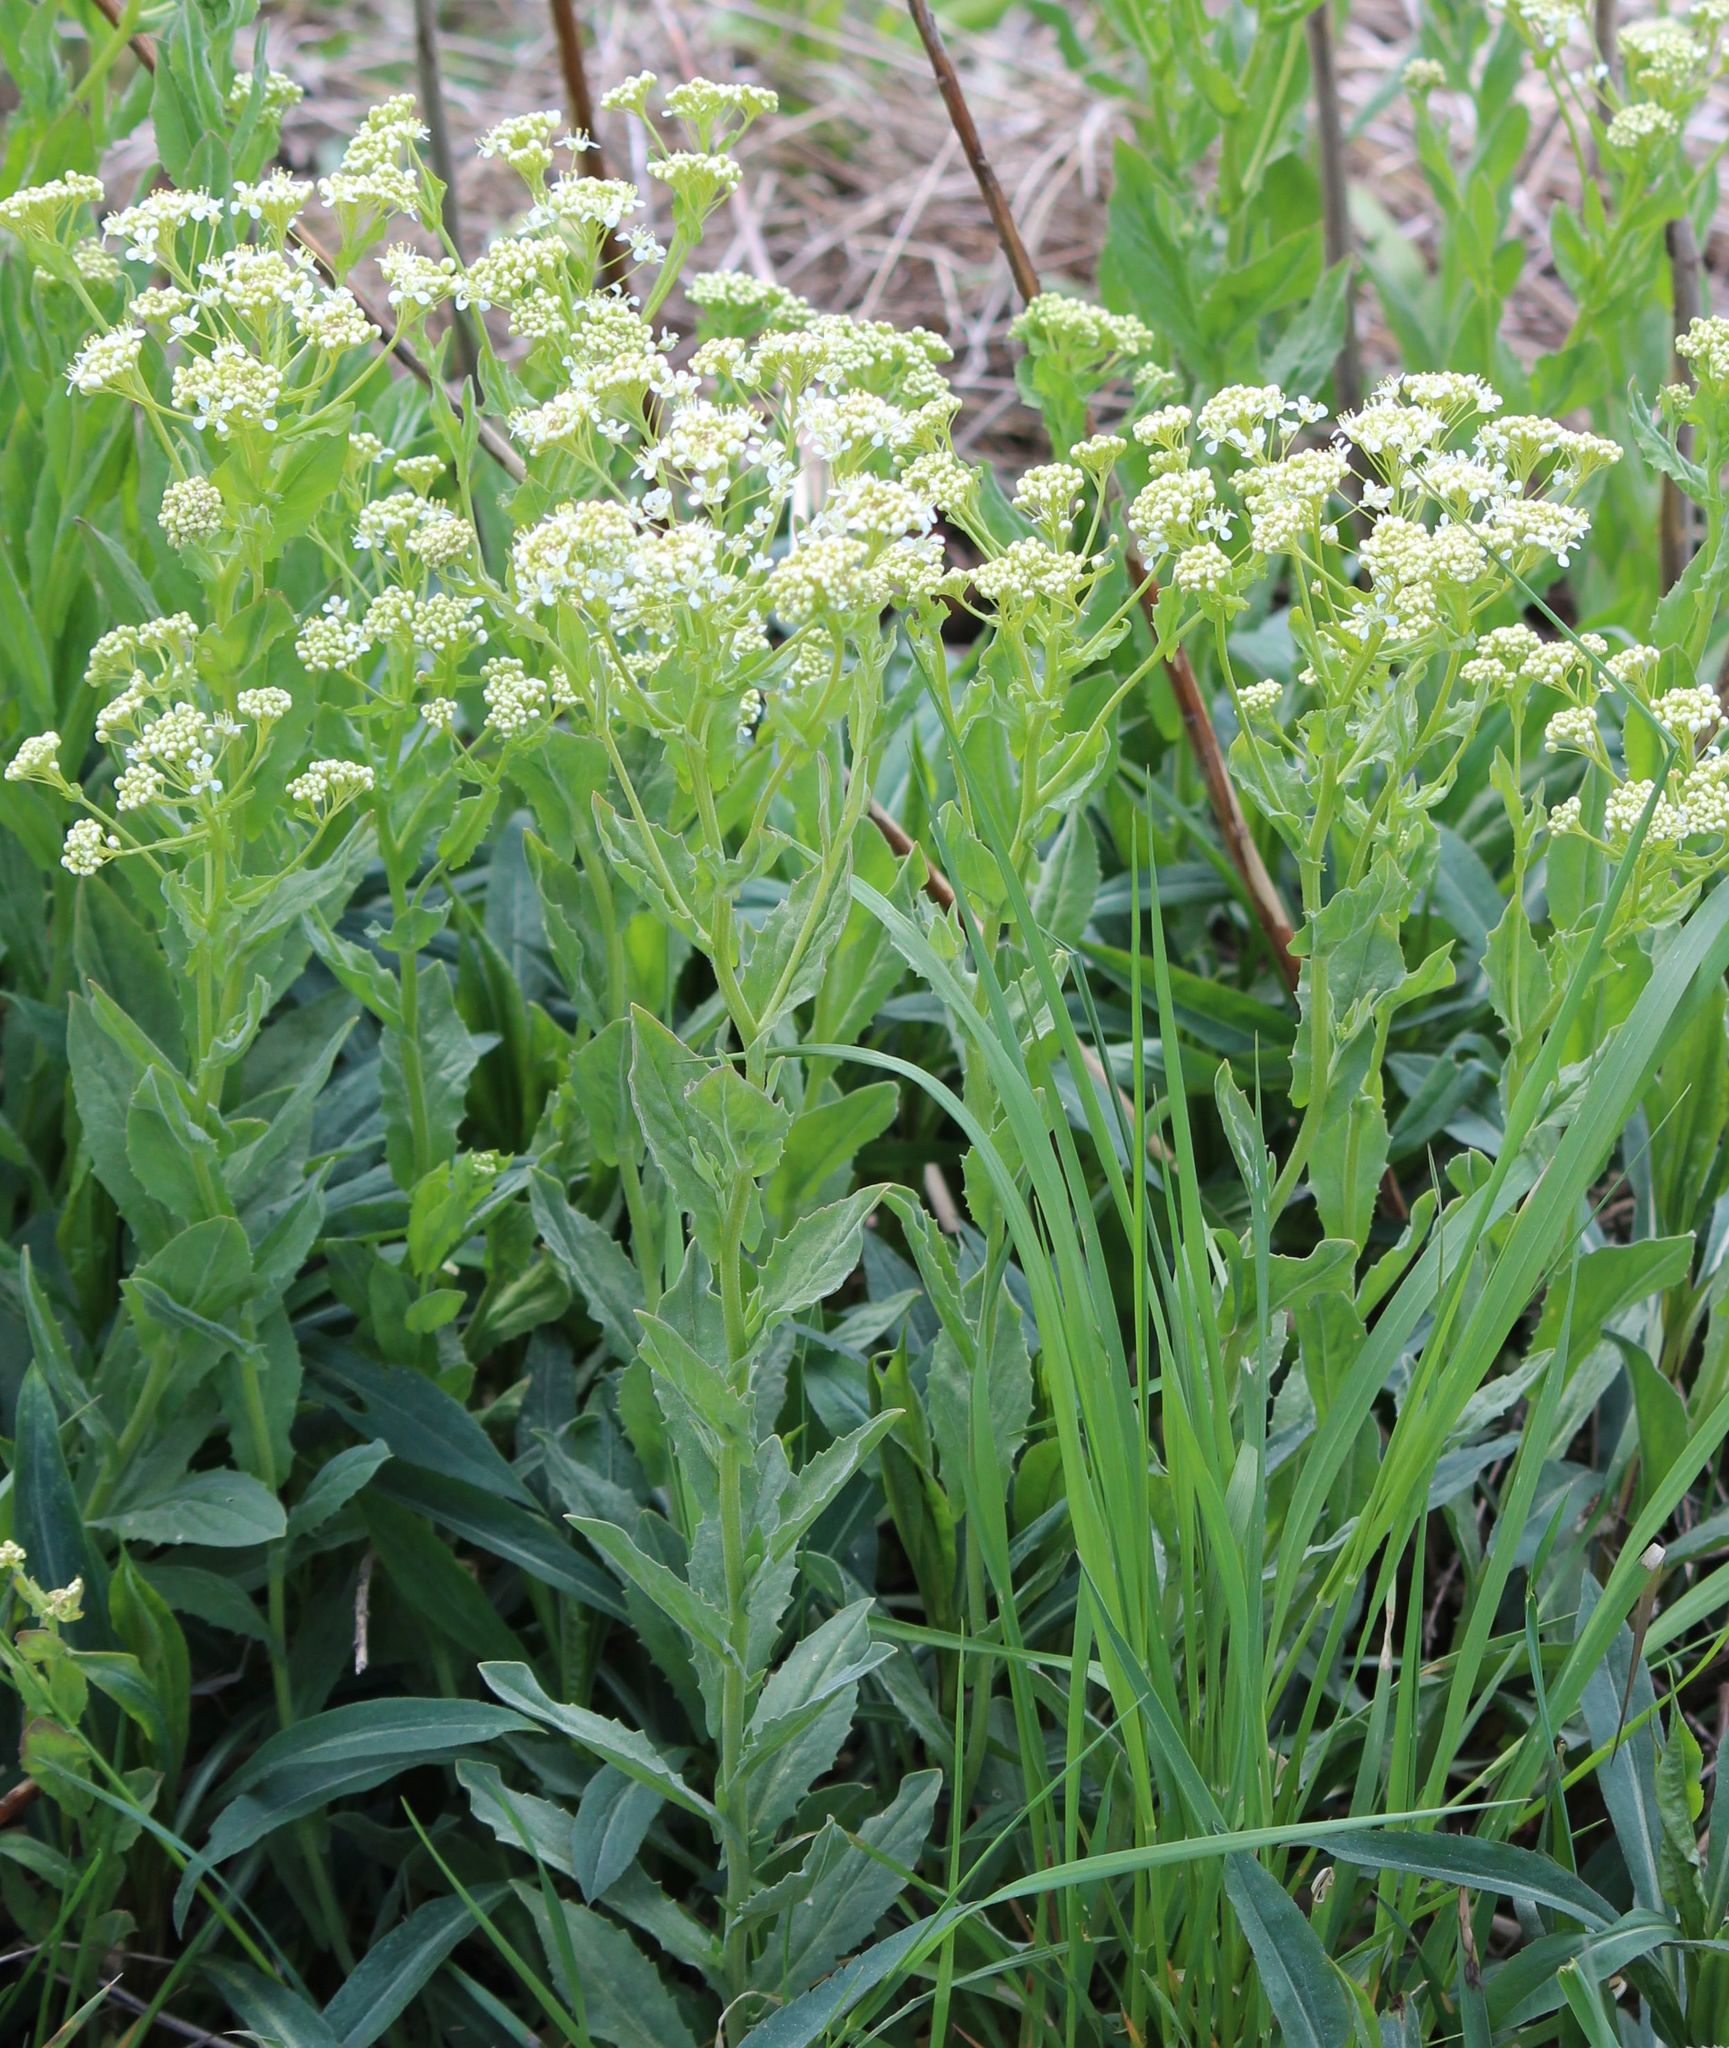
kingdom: Plantae
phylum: Tracheophyta
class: Magnoliopsida
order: Brassicales
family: Brassicaceae
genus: Lepidium
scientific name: Lepidium draba
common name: Hoary cress
